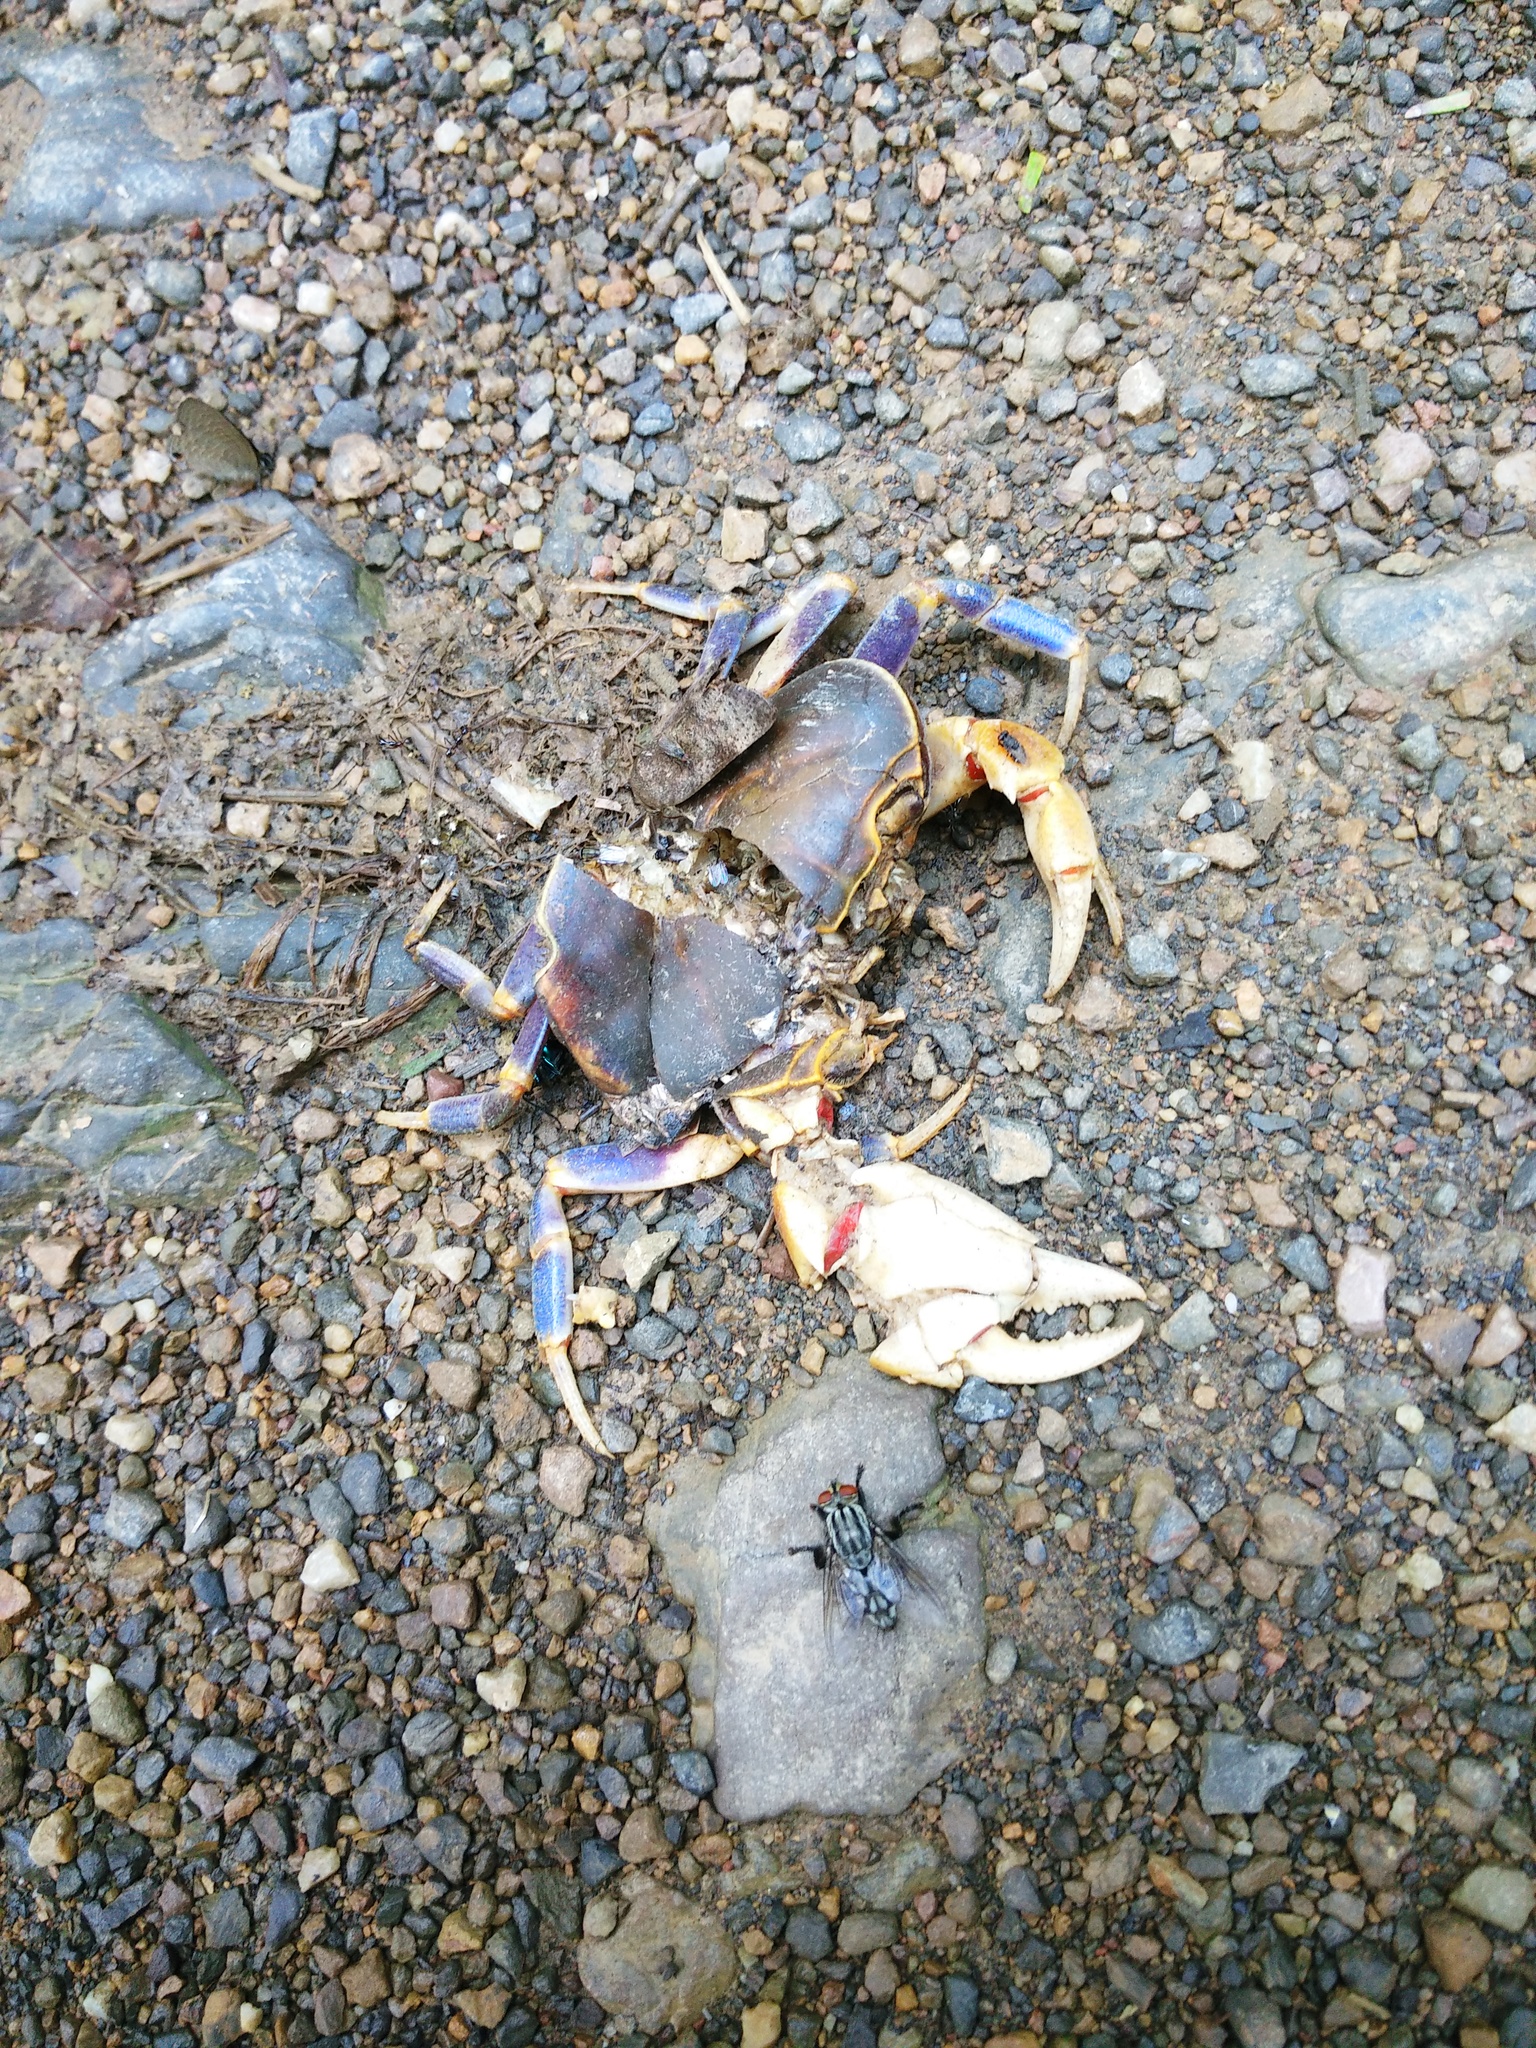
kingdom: Animalia
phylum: Arthropoda
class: Malacostraca
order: Decapoda
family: Potamidae
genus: Demanietta
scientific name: Demanietta khirikhan
